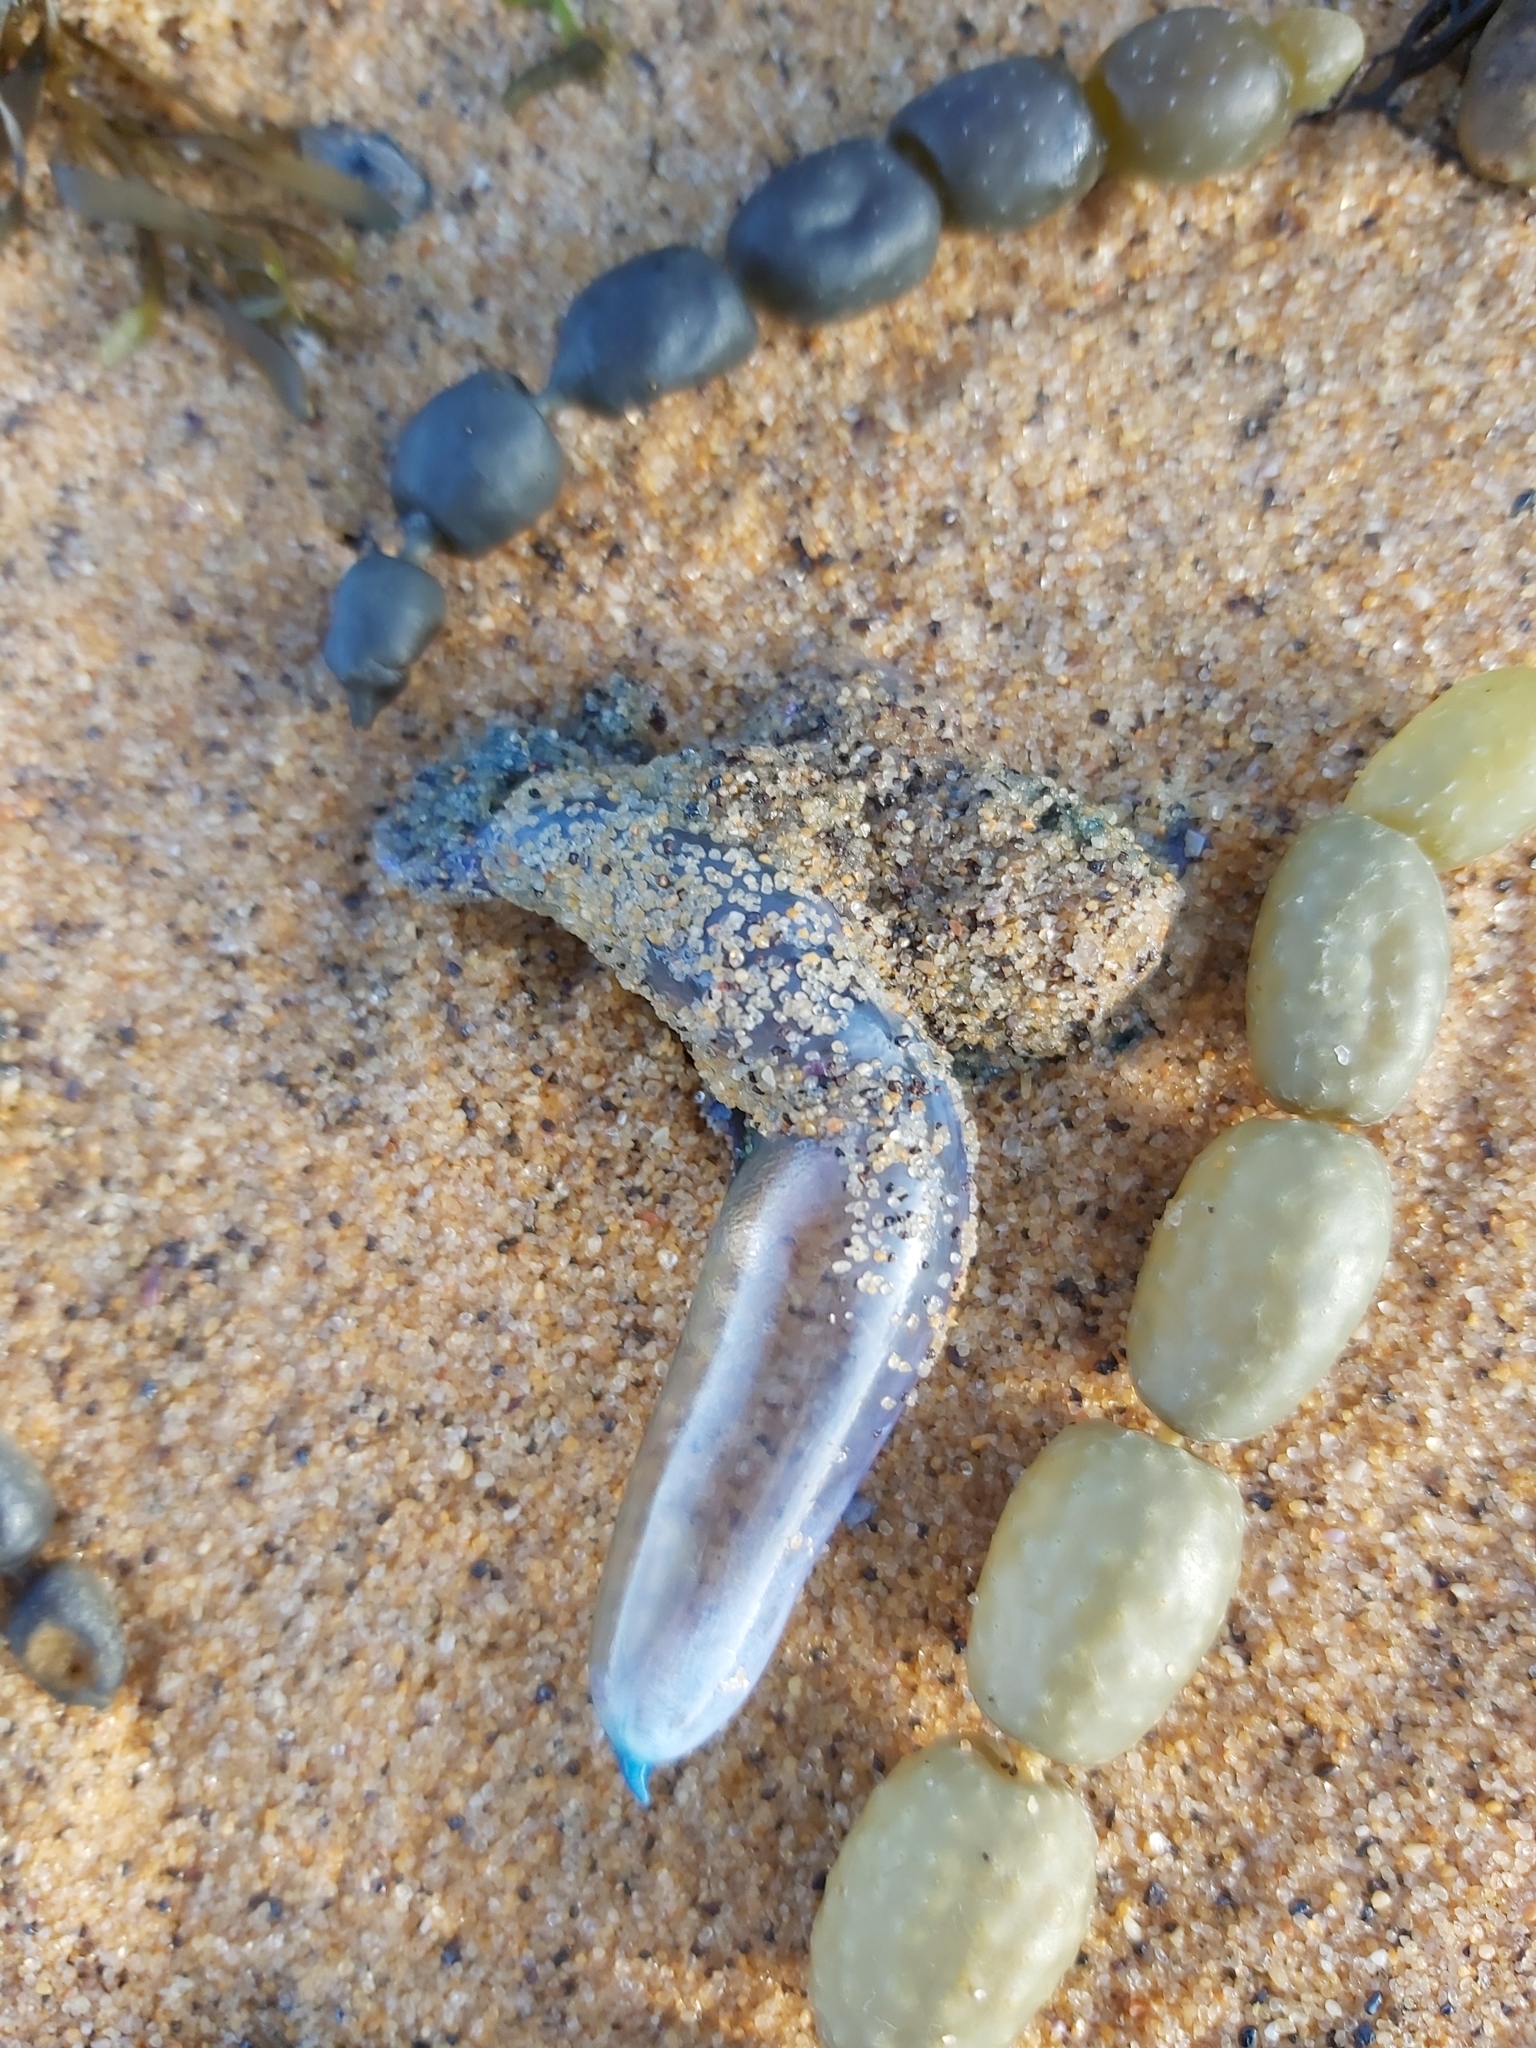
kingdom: Animalia
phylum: Cnidaria
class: Hydrozoa
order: Siphonophorae
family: Physaliidae
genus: Physalia
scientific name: Physalia physalis
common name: Portuguese man-of-war
